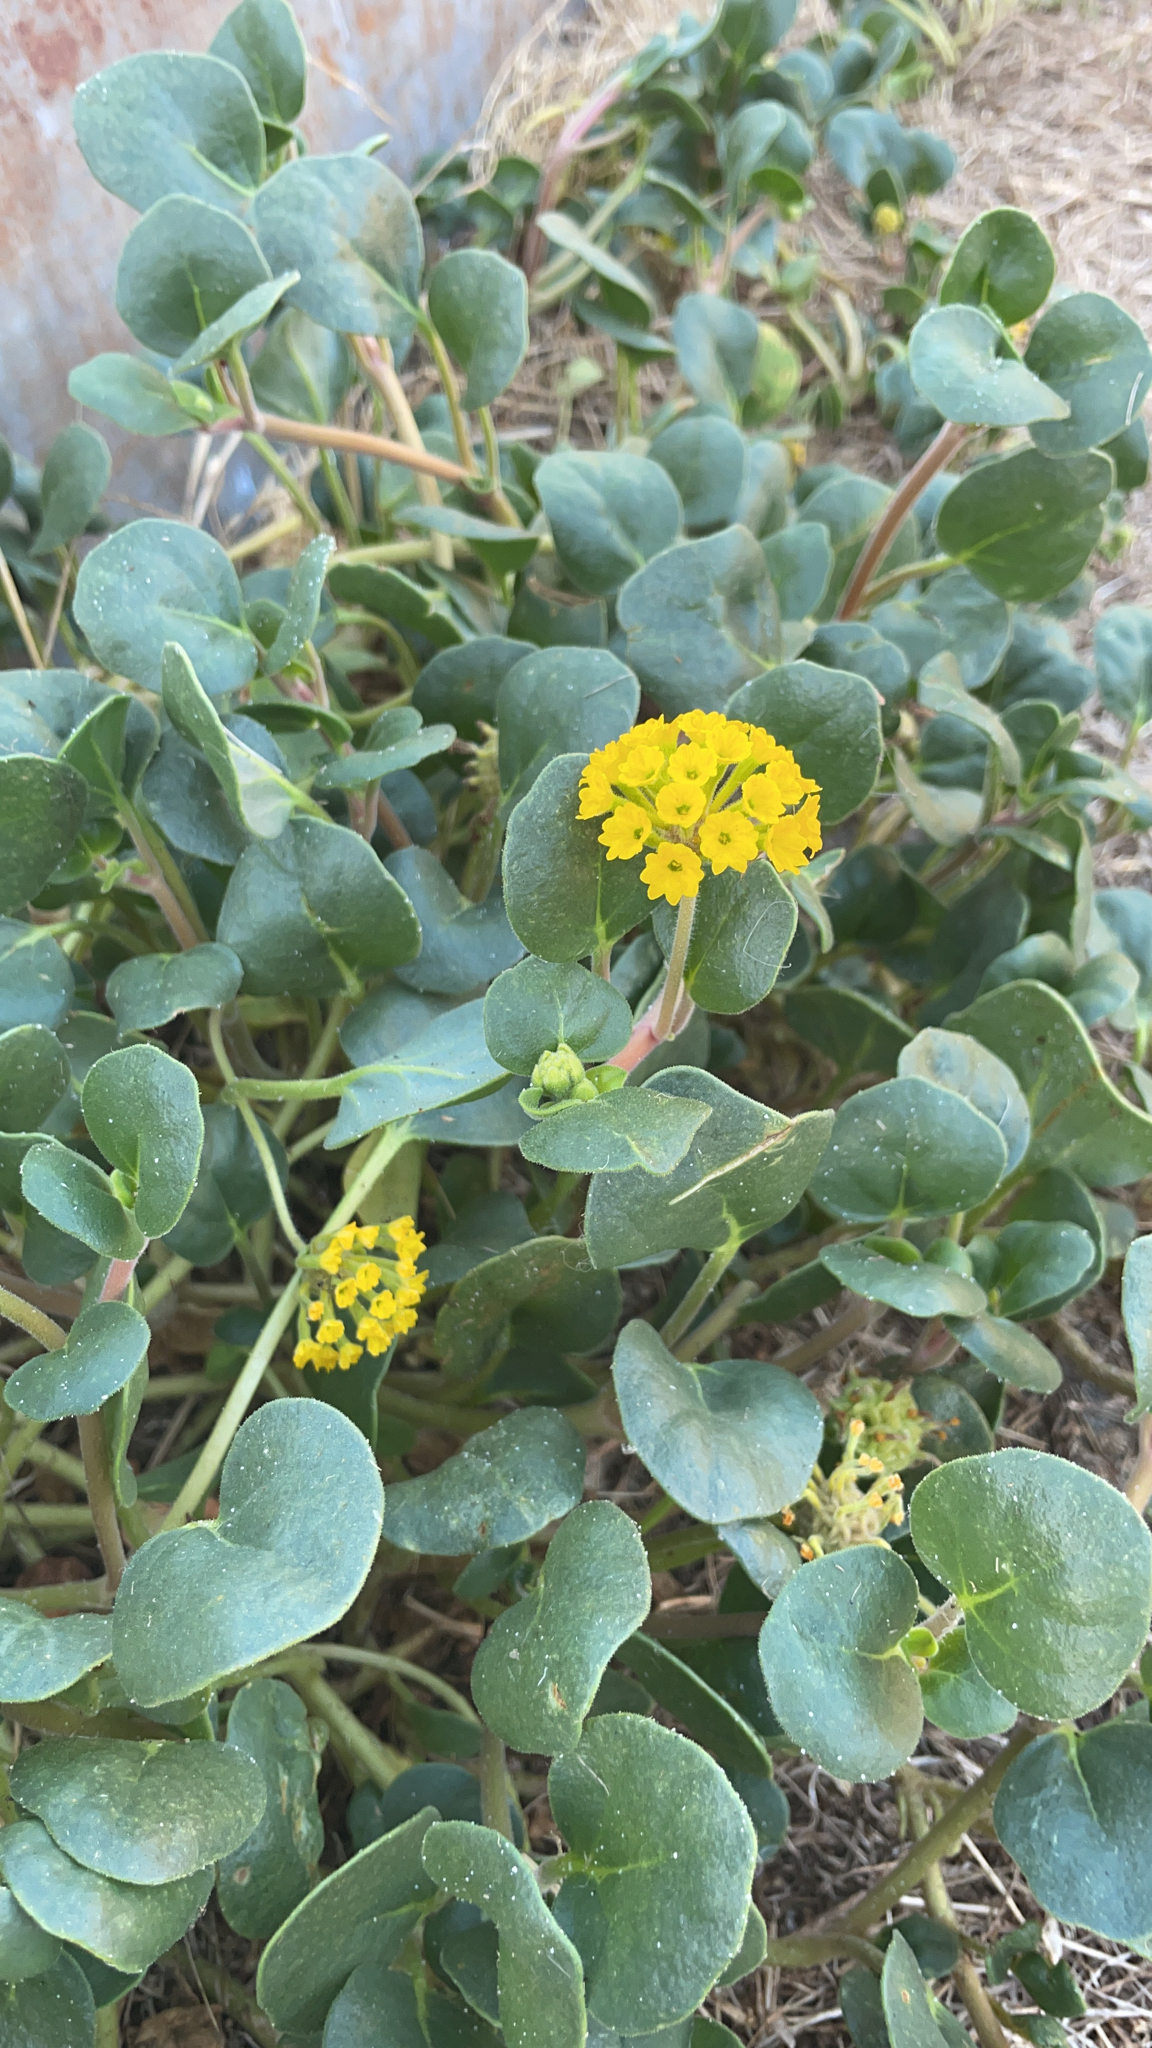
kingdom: Plantae
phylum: Tracheophyta
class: Magnoliopsida
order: Caryophyllales
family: Nyctaginaceae
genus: Abronia
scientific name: Abronia latifolia
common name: Yellow sand-verbena
